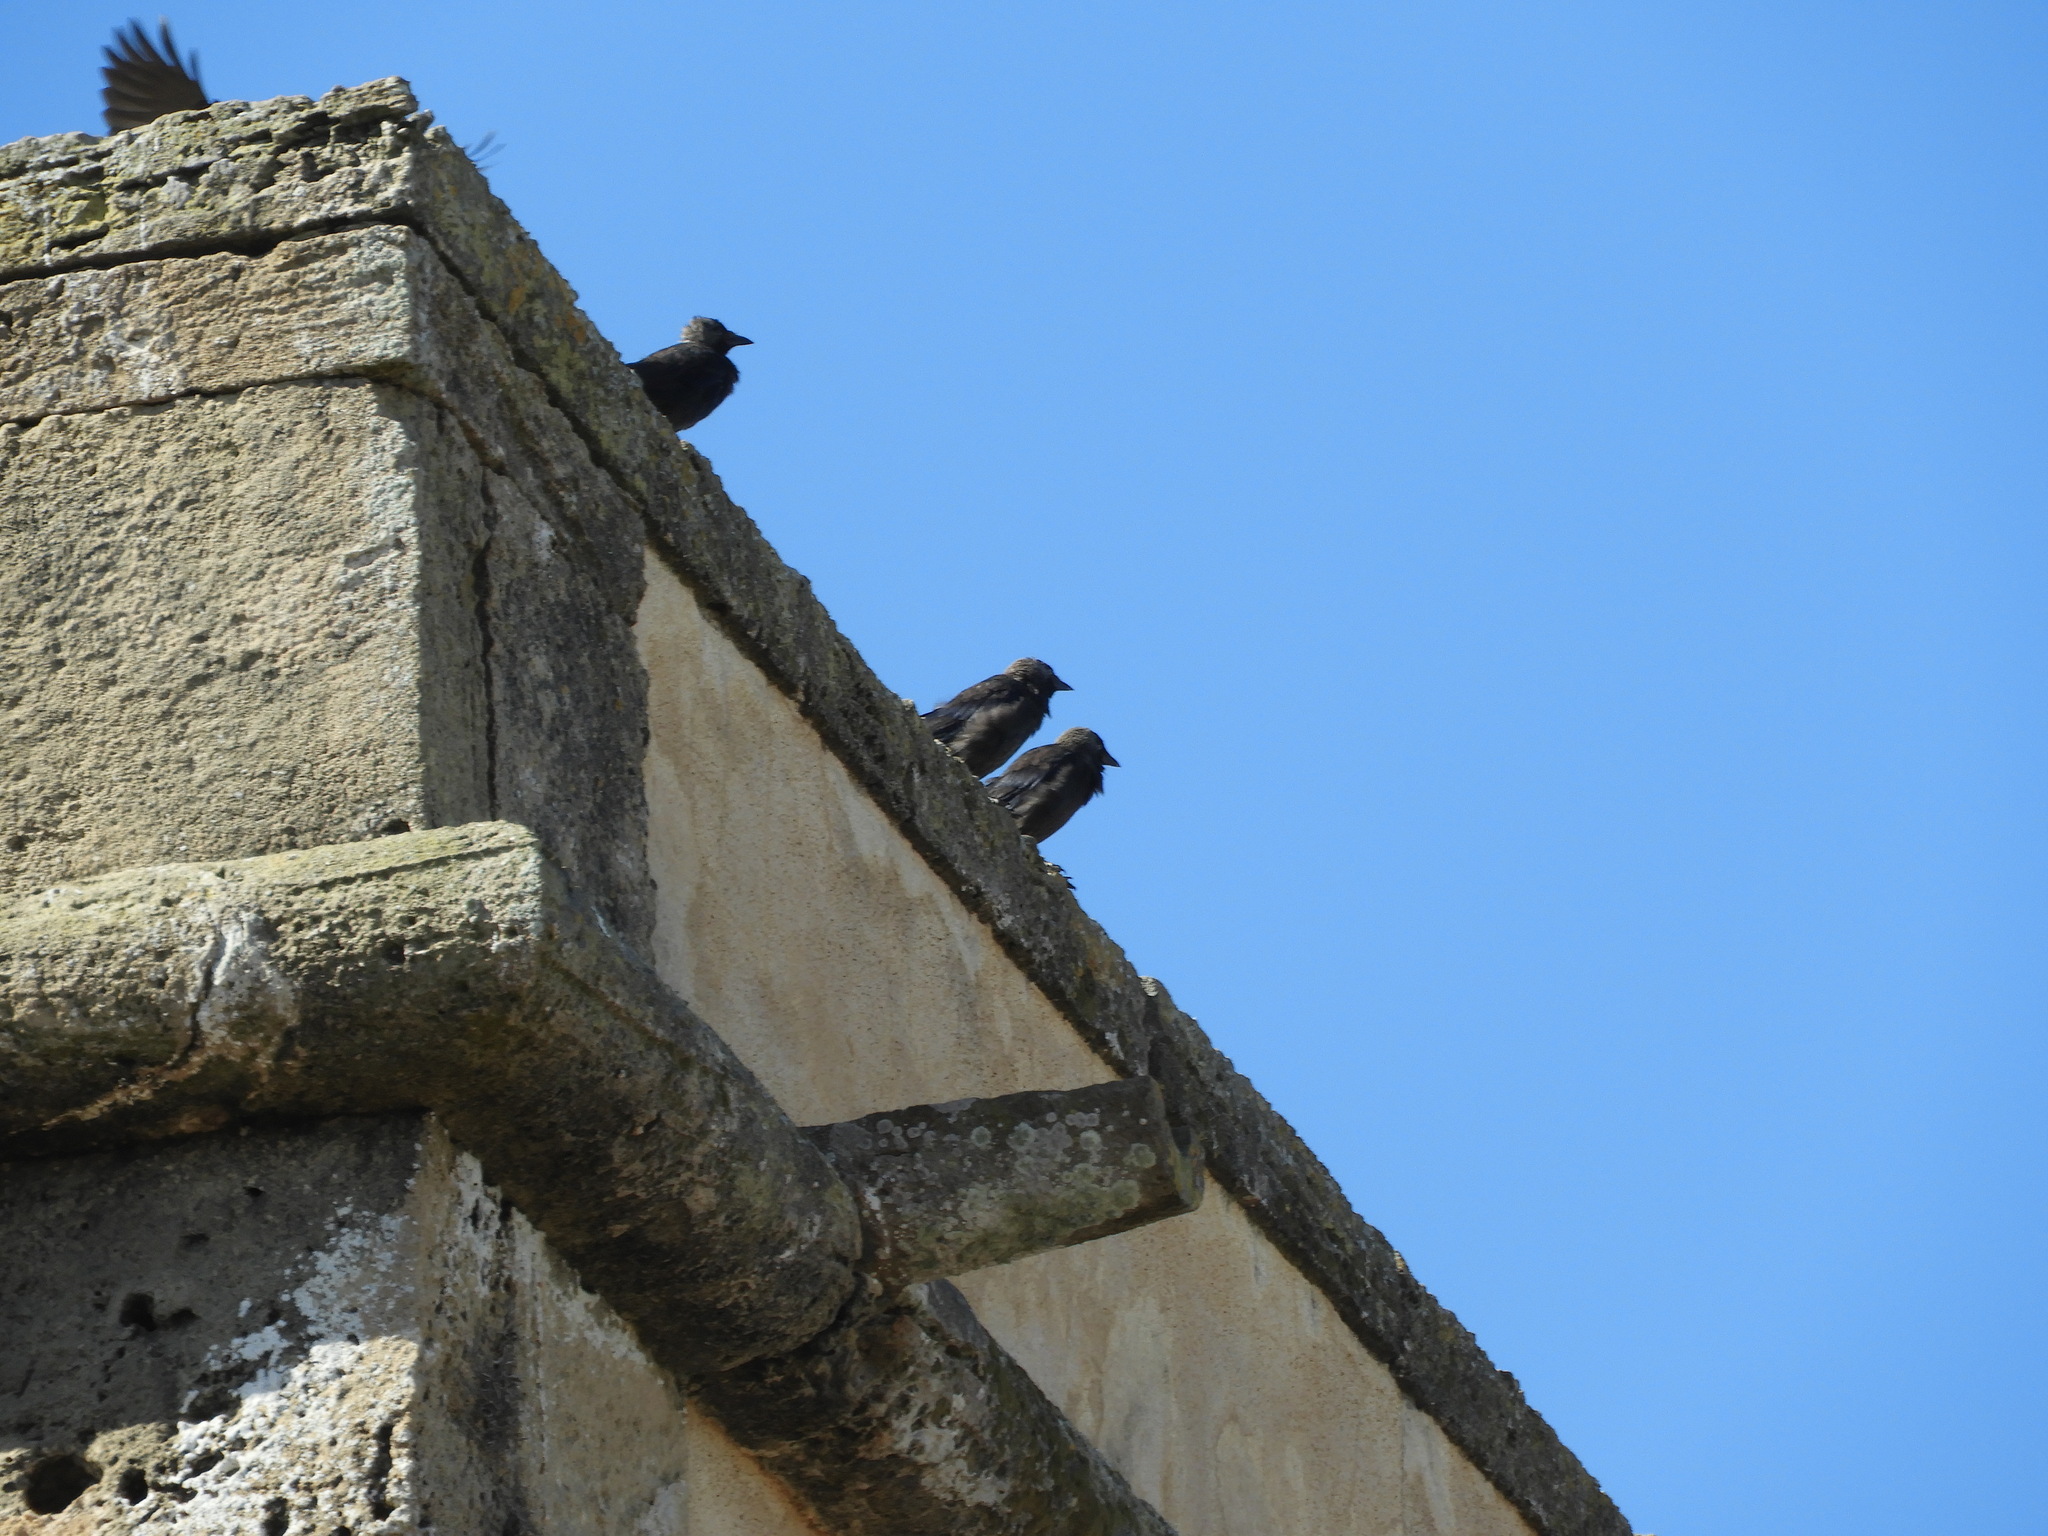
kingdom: Animalia
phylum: Chordata
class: Aves
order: Passeriformes
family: Corvidae
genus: Coloeus
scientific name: Coloeus monedula
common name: Western jackdaw
